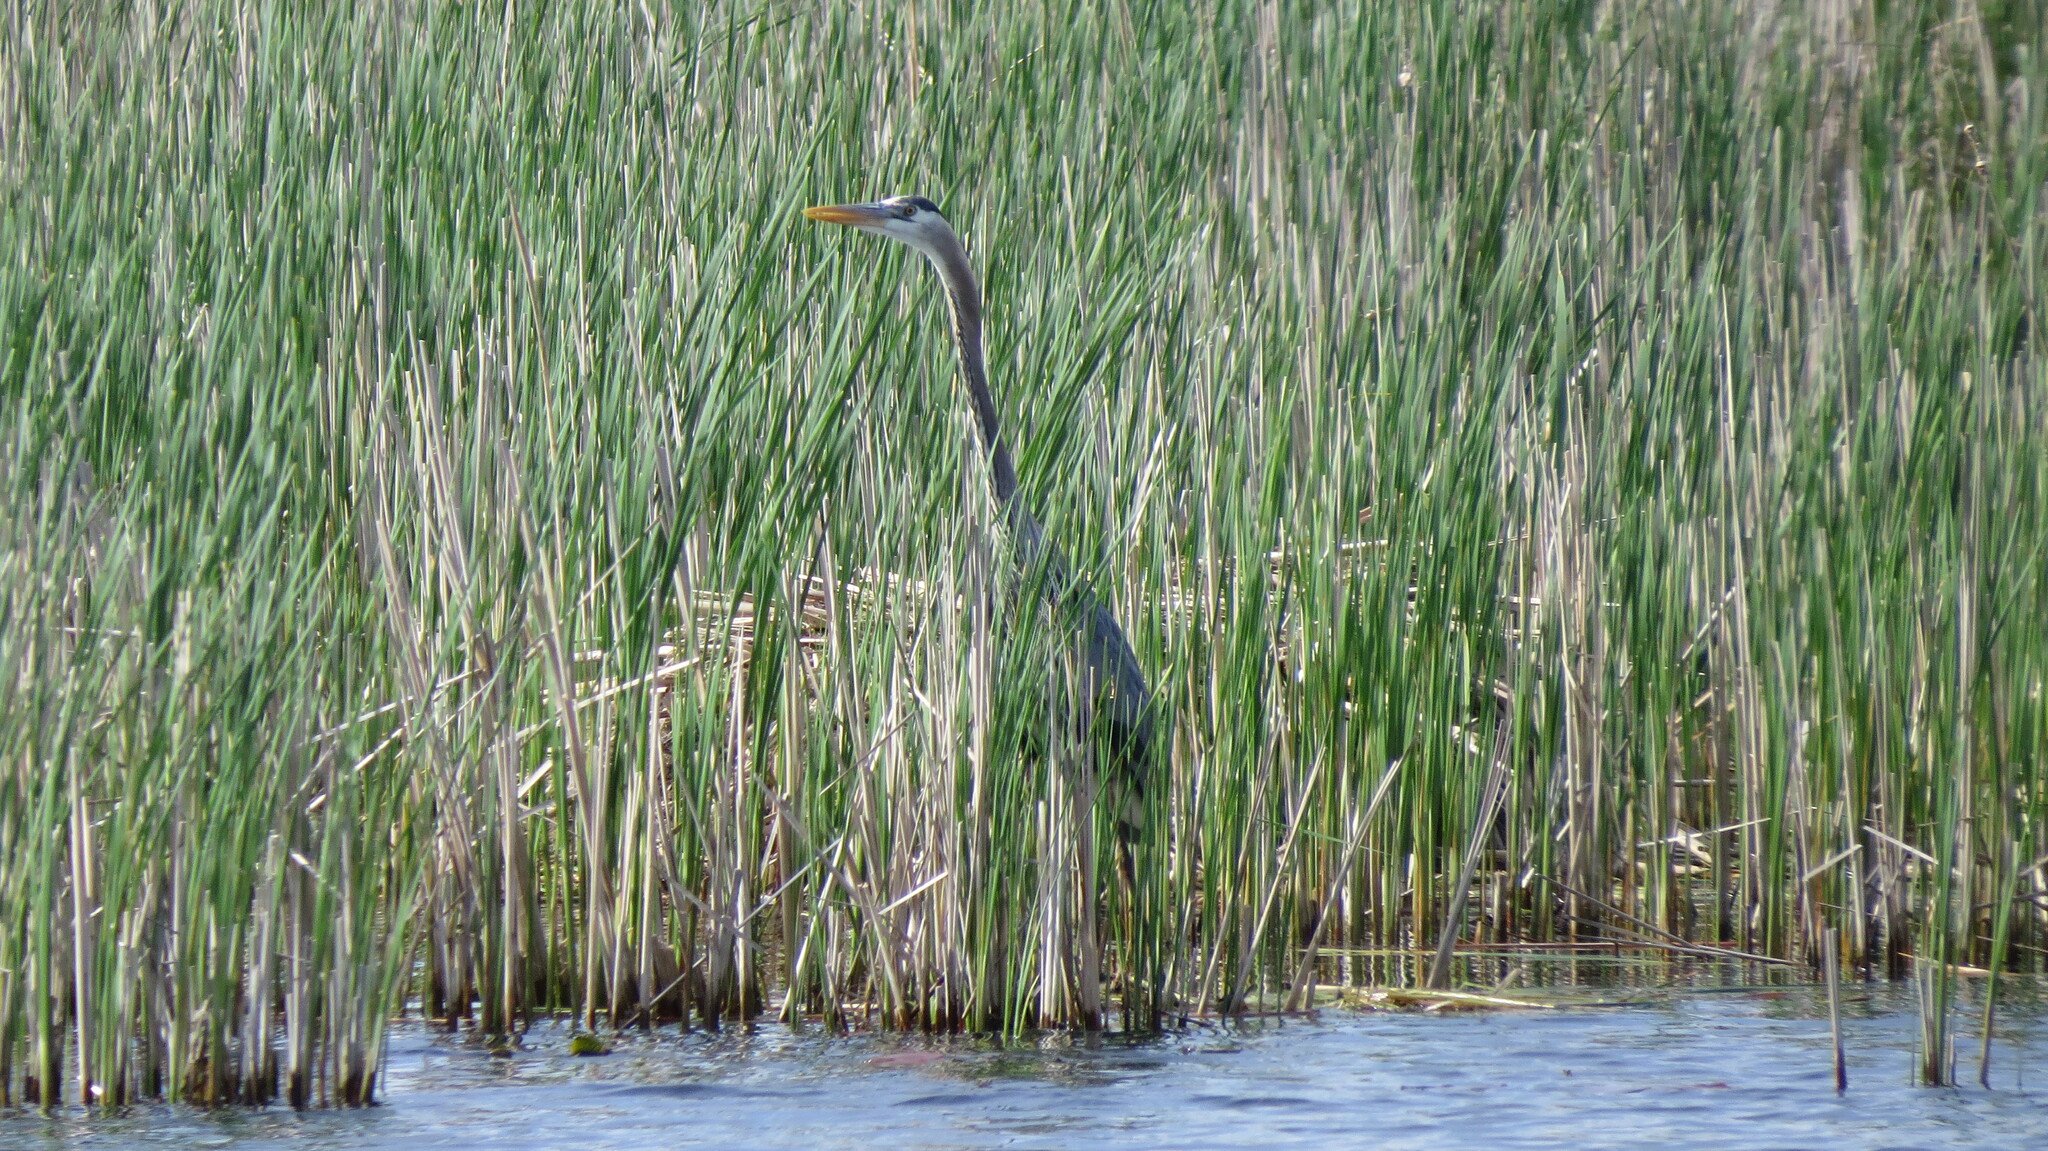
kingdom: Animalia
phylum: Chordata
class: Aves
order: Pelecaniformes
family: Ardeidae
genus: Ardea
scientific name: Ardea herodias
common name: Great blue heron
